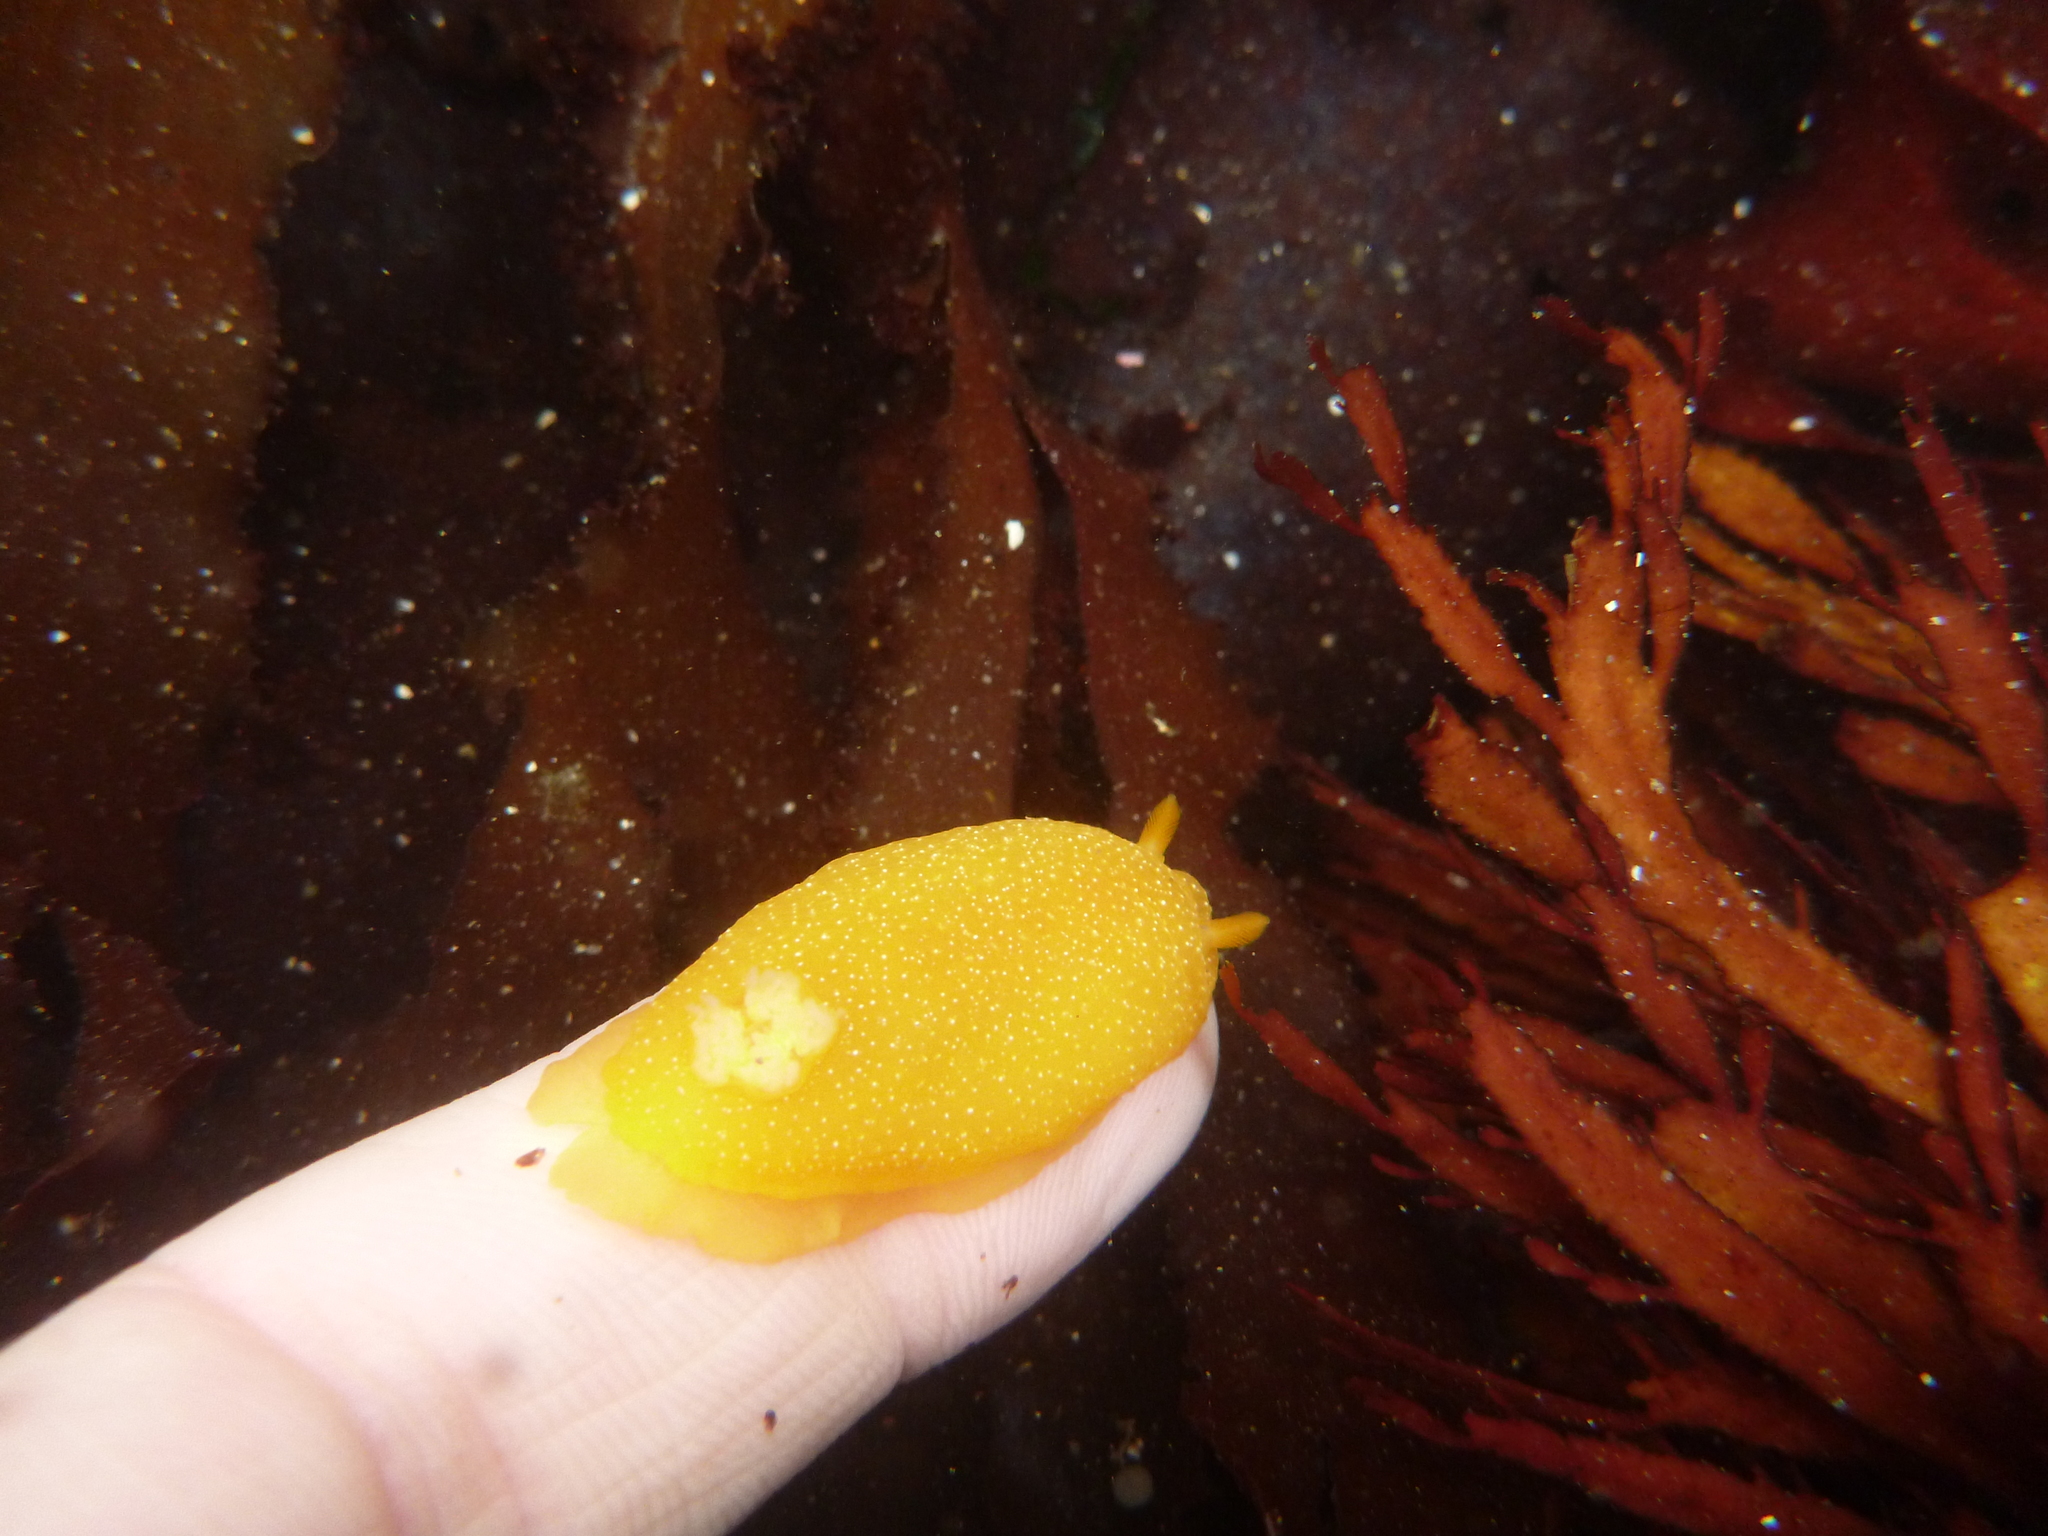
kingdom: Animalia
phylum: Mollusca
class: Gastropoda
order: Nudibranchia
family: Dendrodorididae
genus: Doriopsilla
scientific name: Doriopsilla albopunctata
